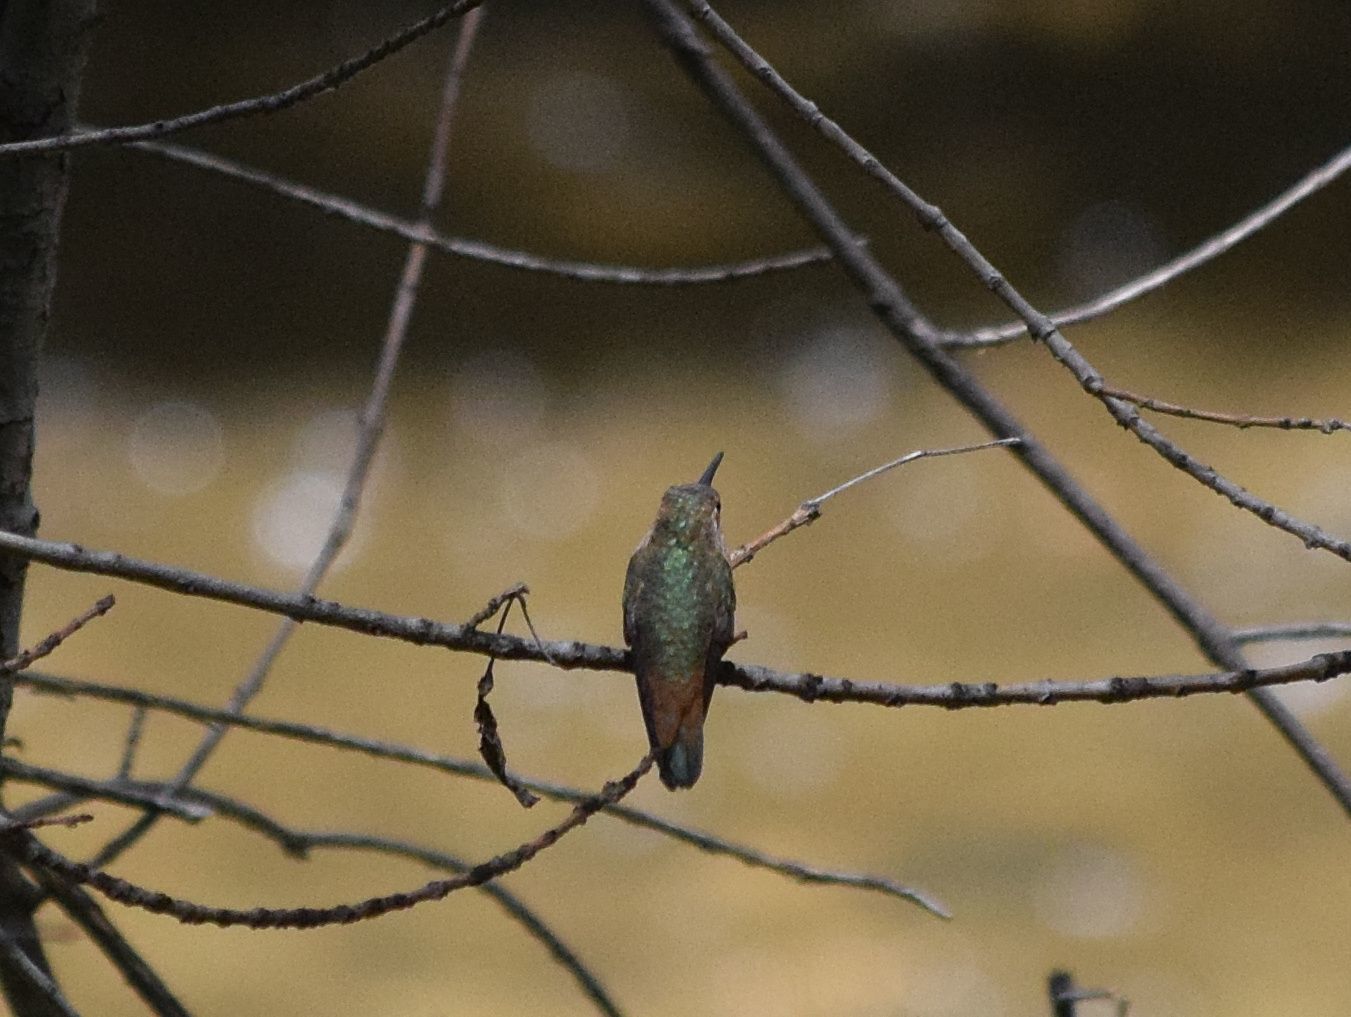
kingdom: Animalia
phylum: Chordata
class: Aves
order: Apodiformes
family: Trochilidae
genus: Selasphorus
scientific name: Selasphorus
